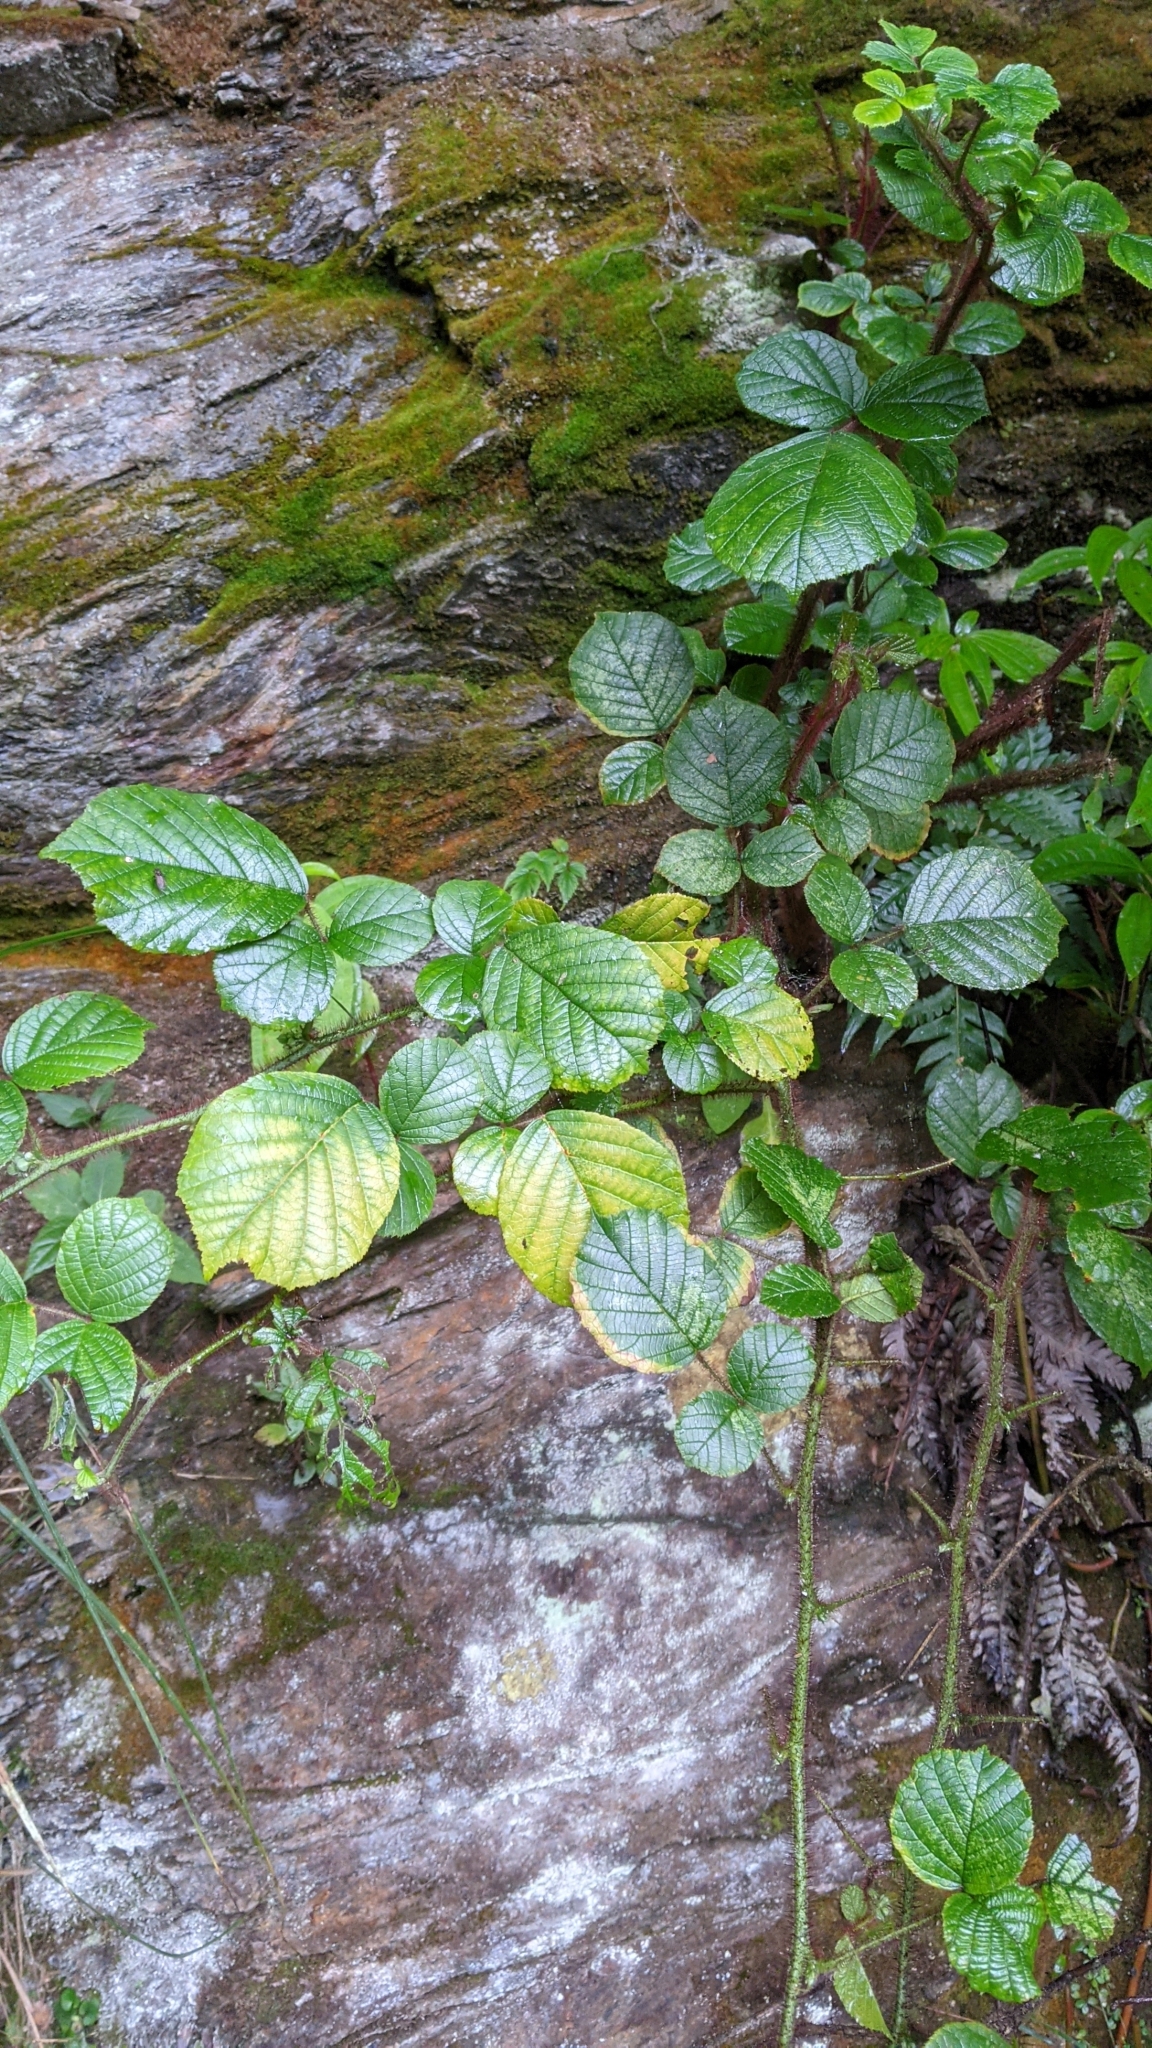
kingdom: Plantae
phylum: Tracheophyta
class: Magnoliopsida
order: Rosales
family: Rosaceae
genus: Rubus
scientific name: Rubus ellipticus
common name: Cheeseberry
